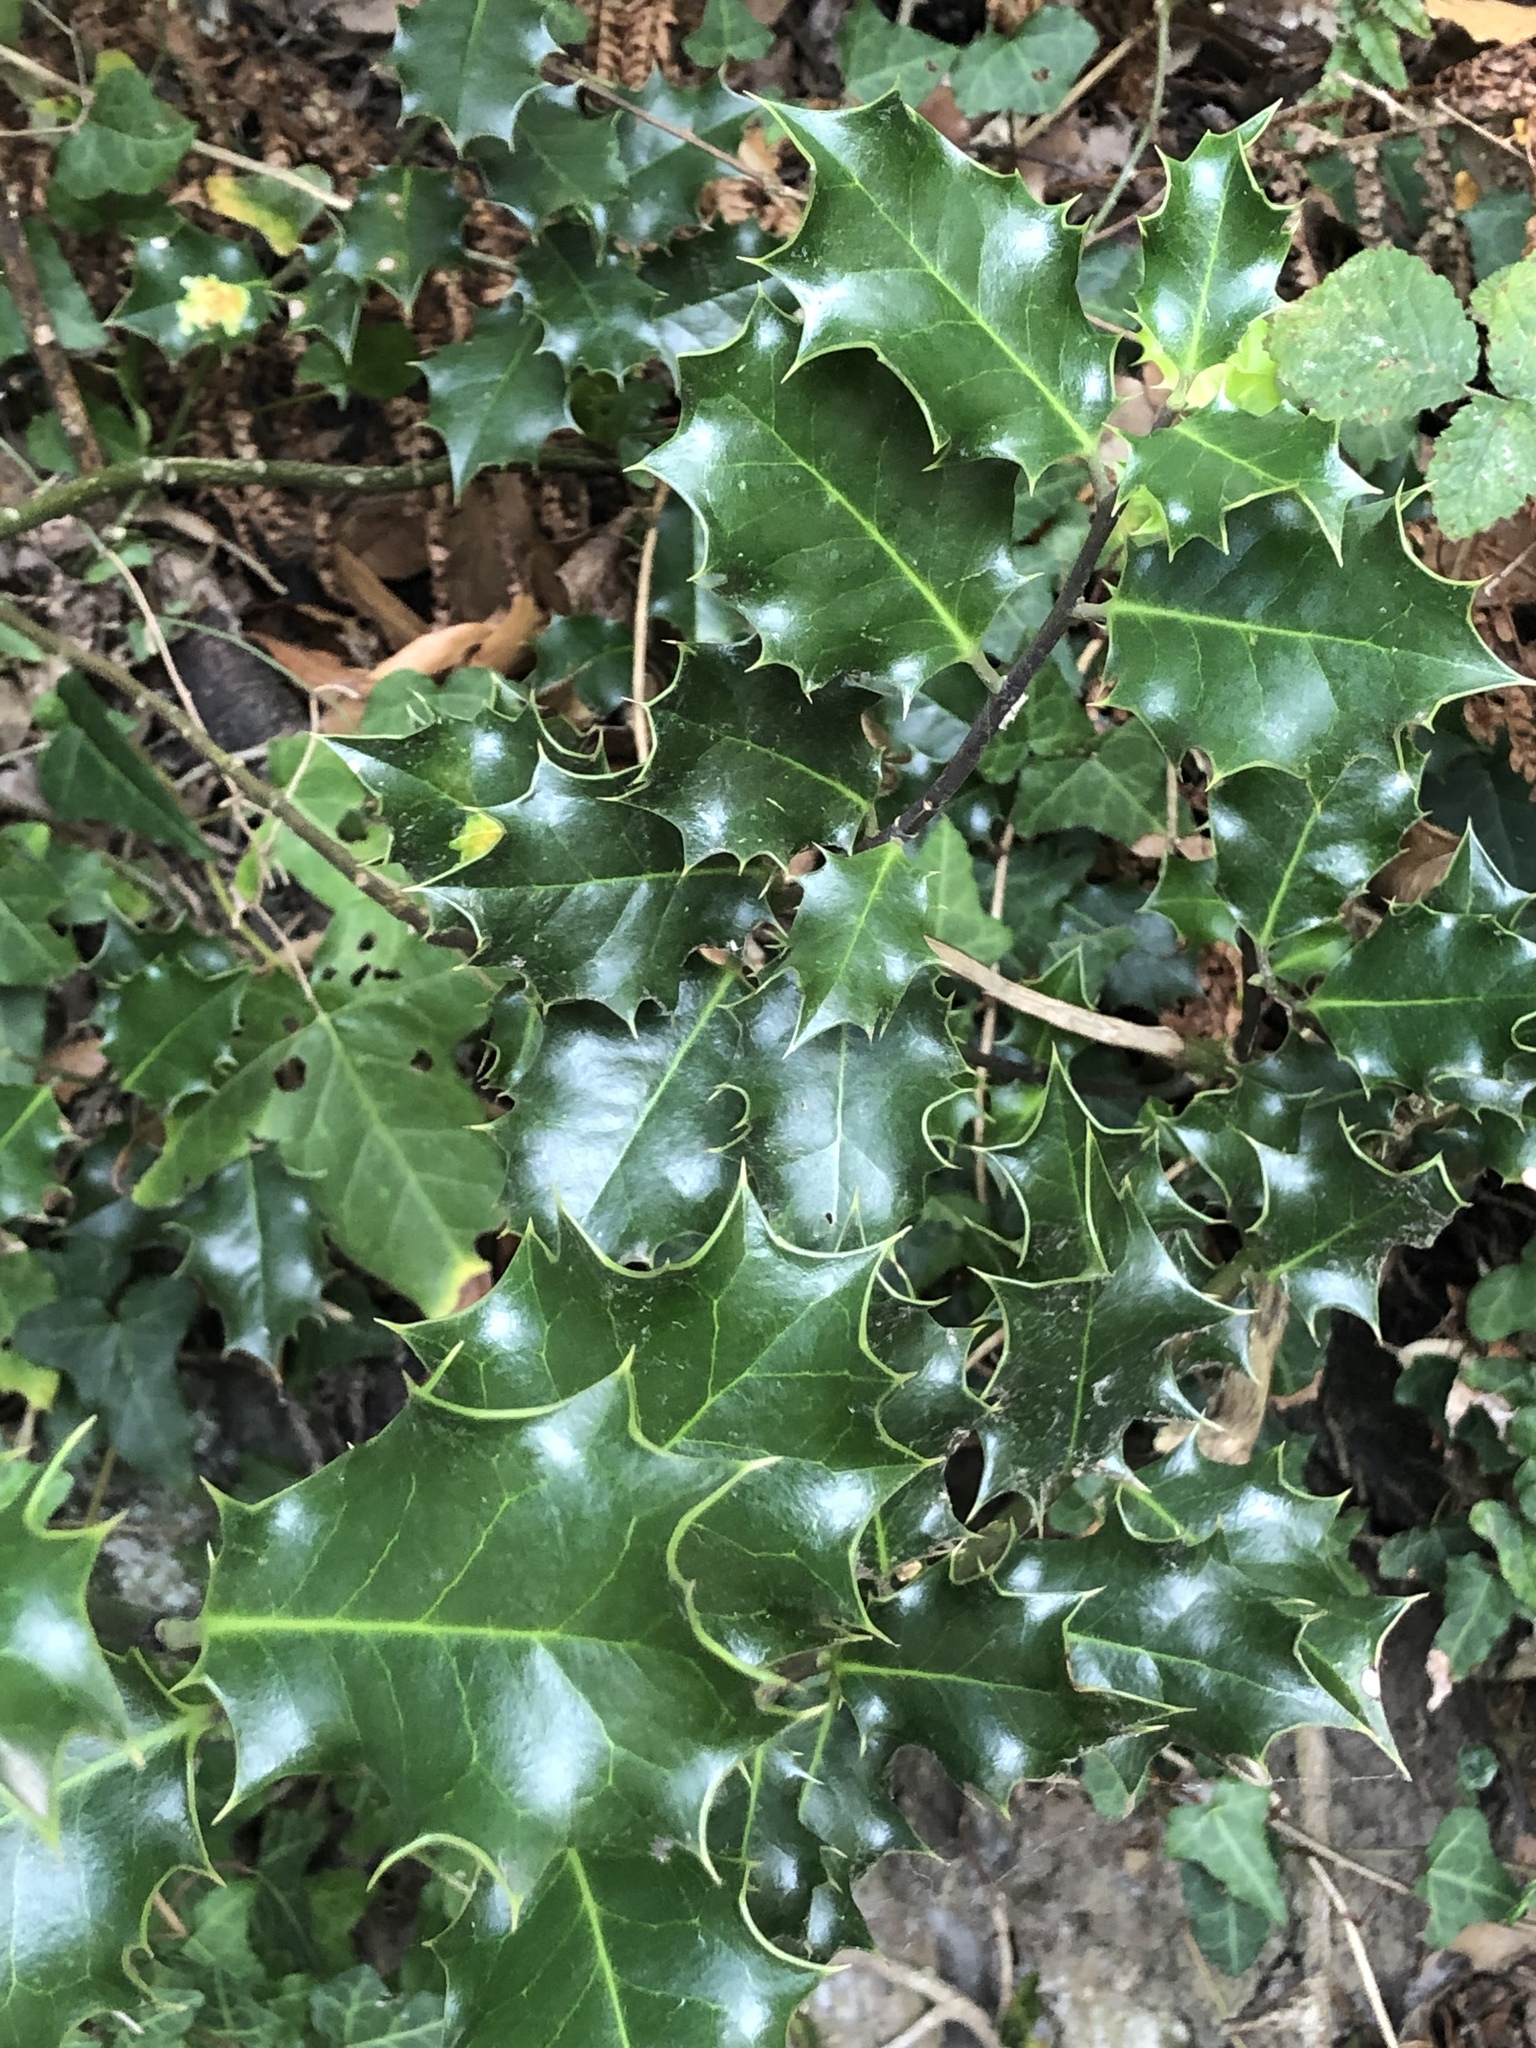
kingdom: Plantae
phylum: Tracheophyta
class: Magnoliopsida
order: Aquifoliales
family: Aquifoliaceae
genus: Ilex
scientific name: Ilex aquifolium
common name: English holly
